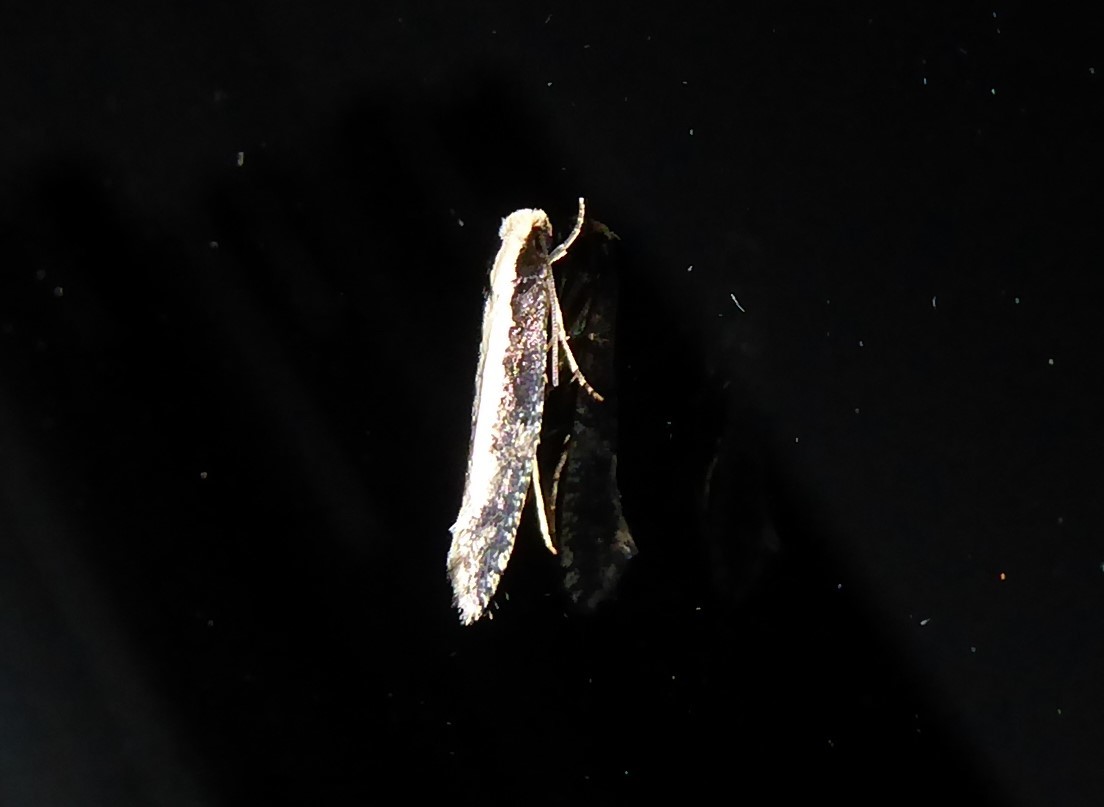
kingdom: Animalia
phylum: Arthropoda
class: Insecta
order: Lepidoptera
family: Tineidae
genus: Monopis
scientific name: Monopis ethelella
